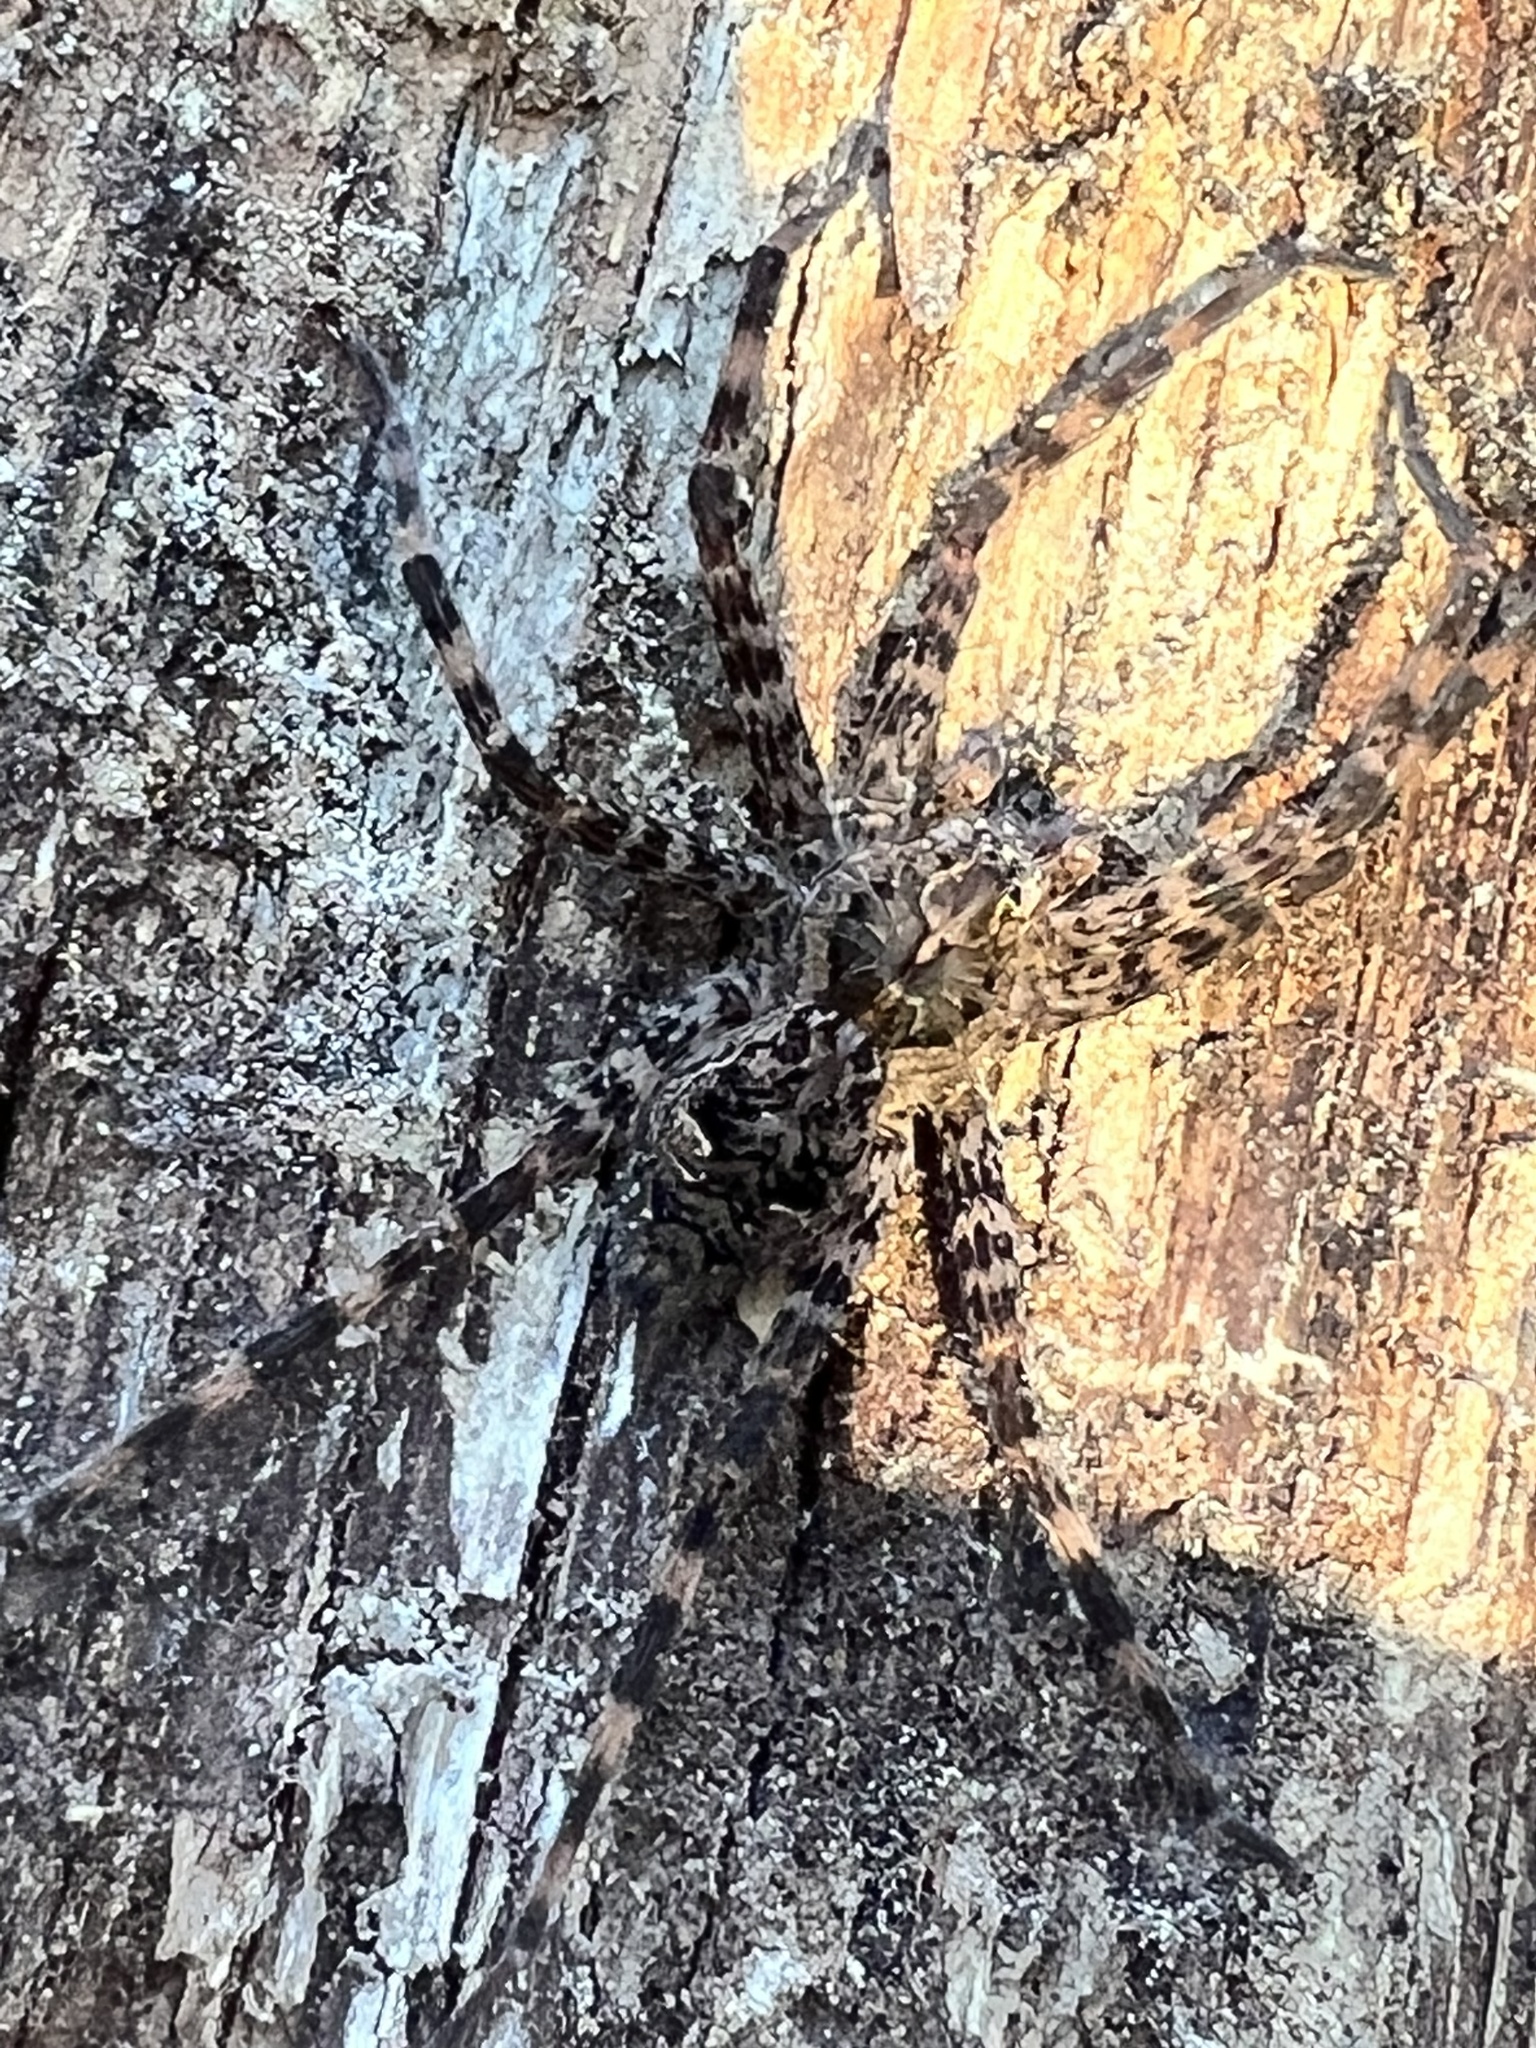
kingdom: Animalia
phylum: Arthropoda
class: Arachnida
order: Araneae
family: Pisauridae
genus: Dolomedes
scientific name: Dolomedes tenebrosus
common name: Dark fishing spider
